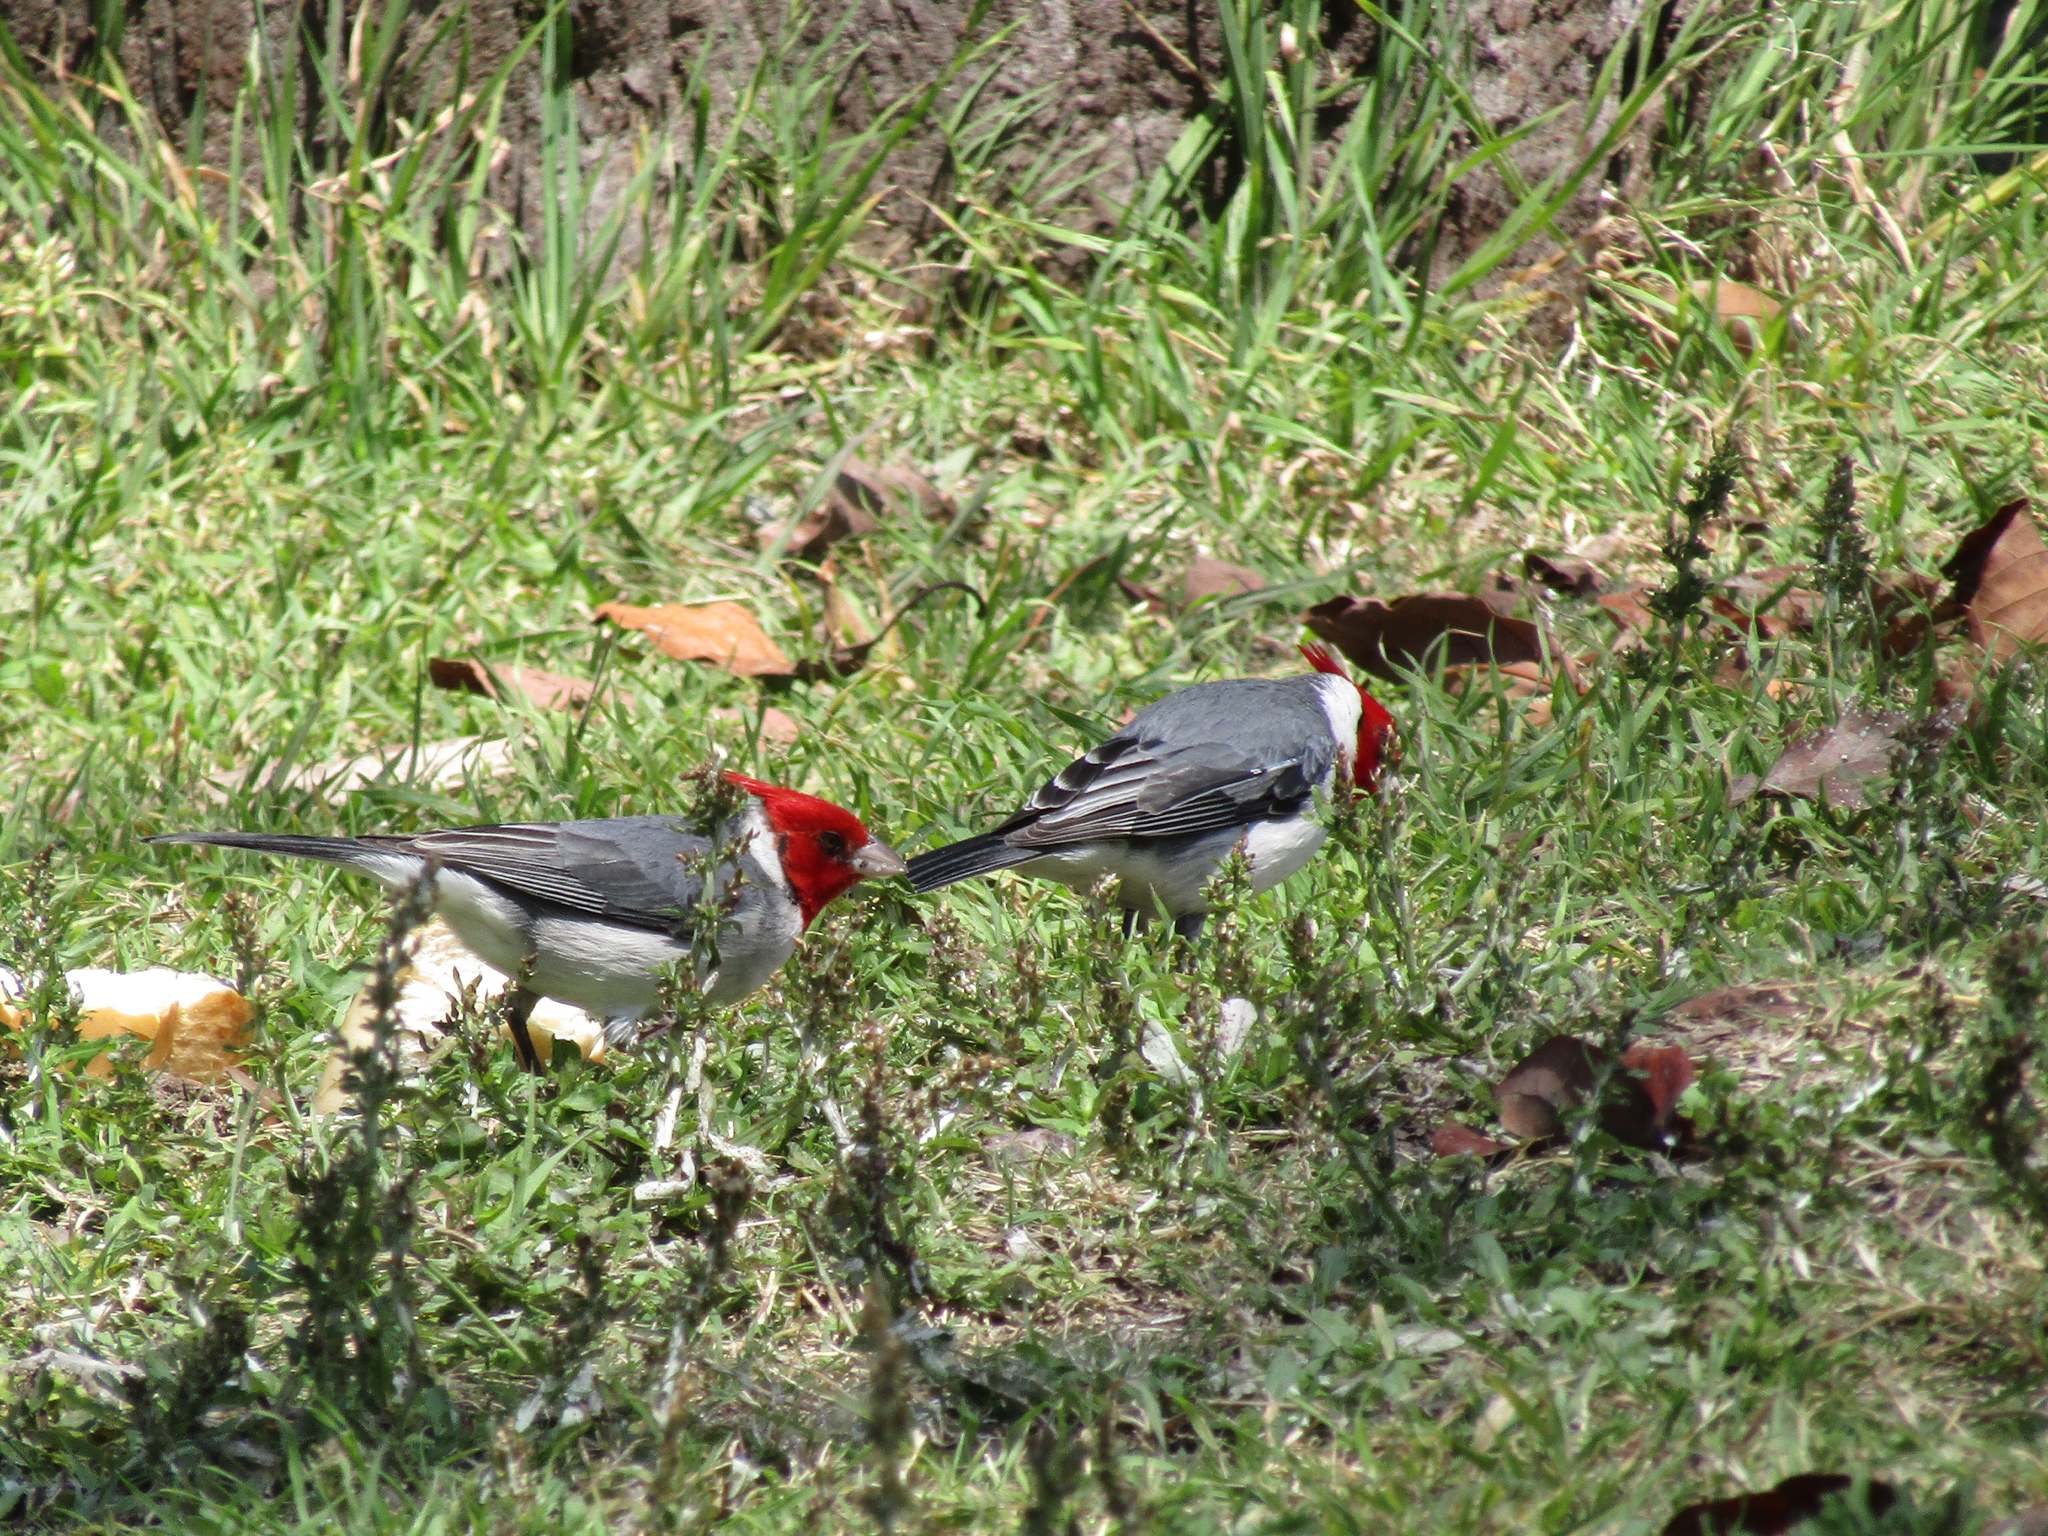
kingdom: Animalia
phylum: Chordata
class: Aves
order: Passeriformes
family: Thraupidae
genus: Paroaria
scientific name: Paroaria coronata
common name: Red-crested cardinal
